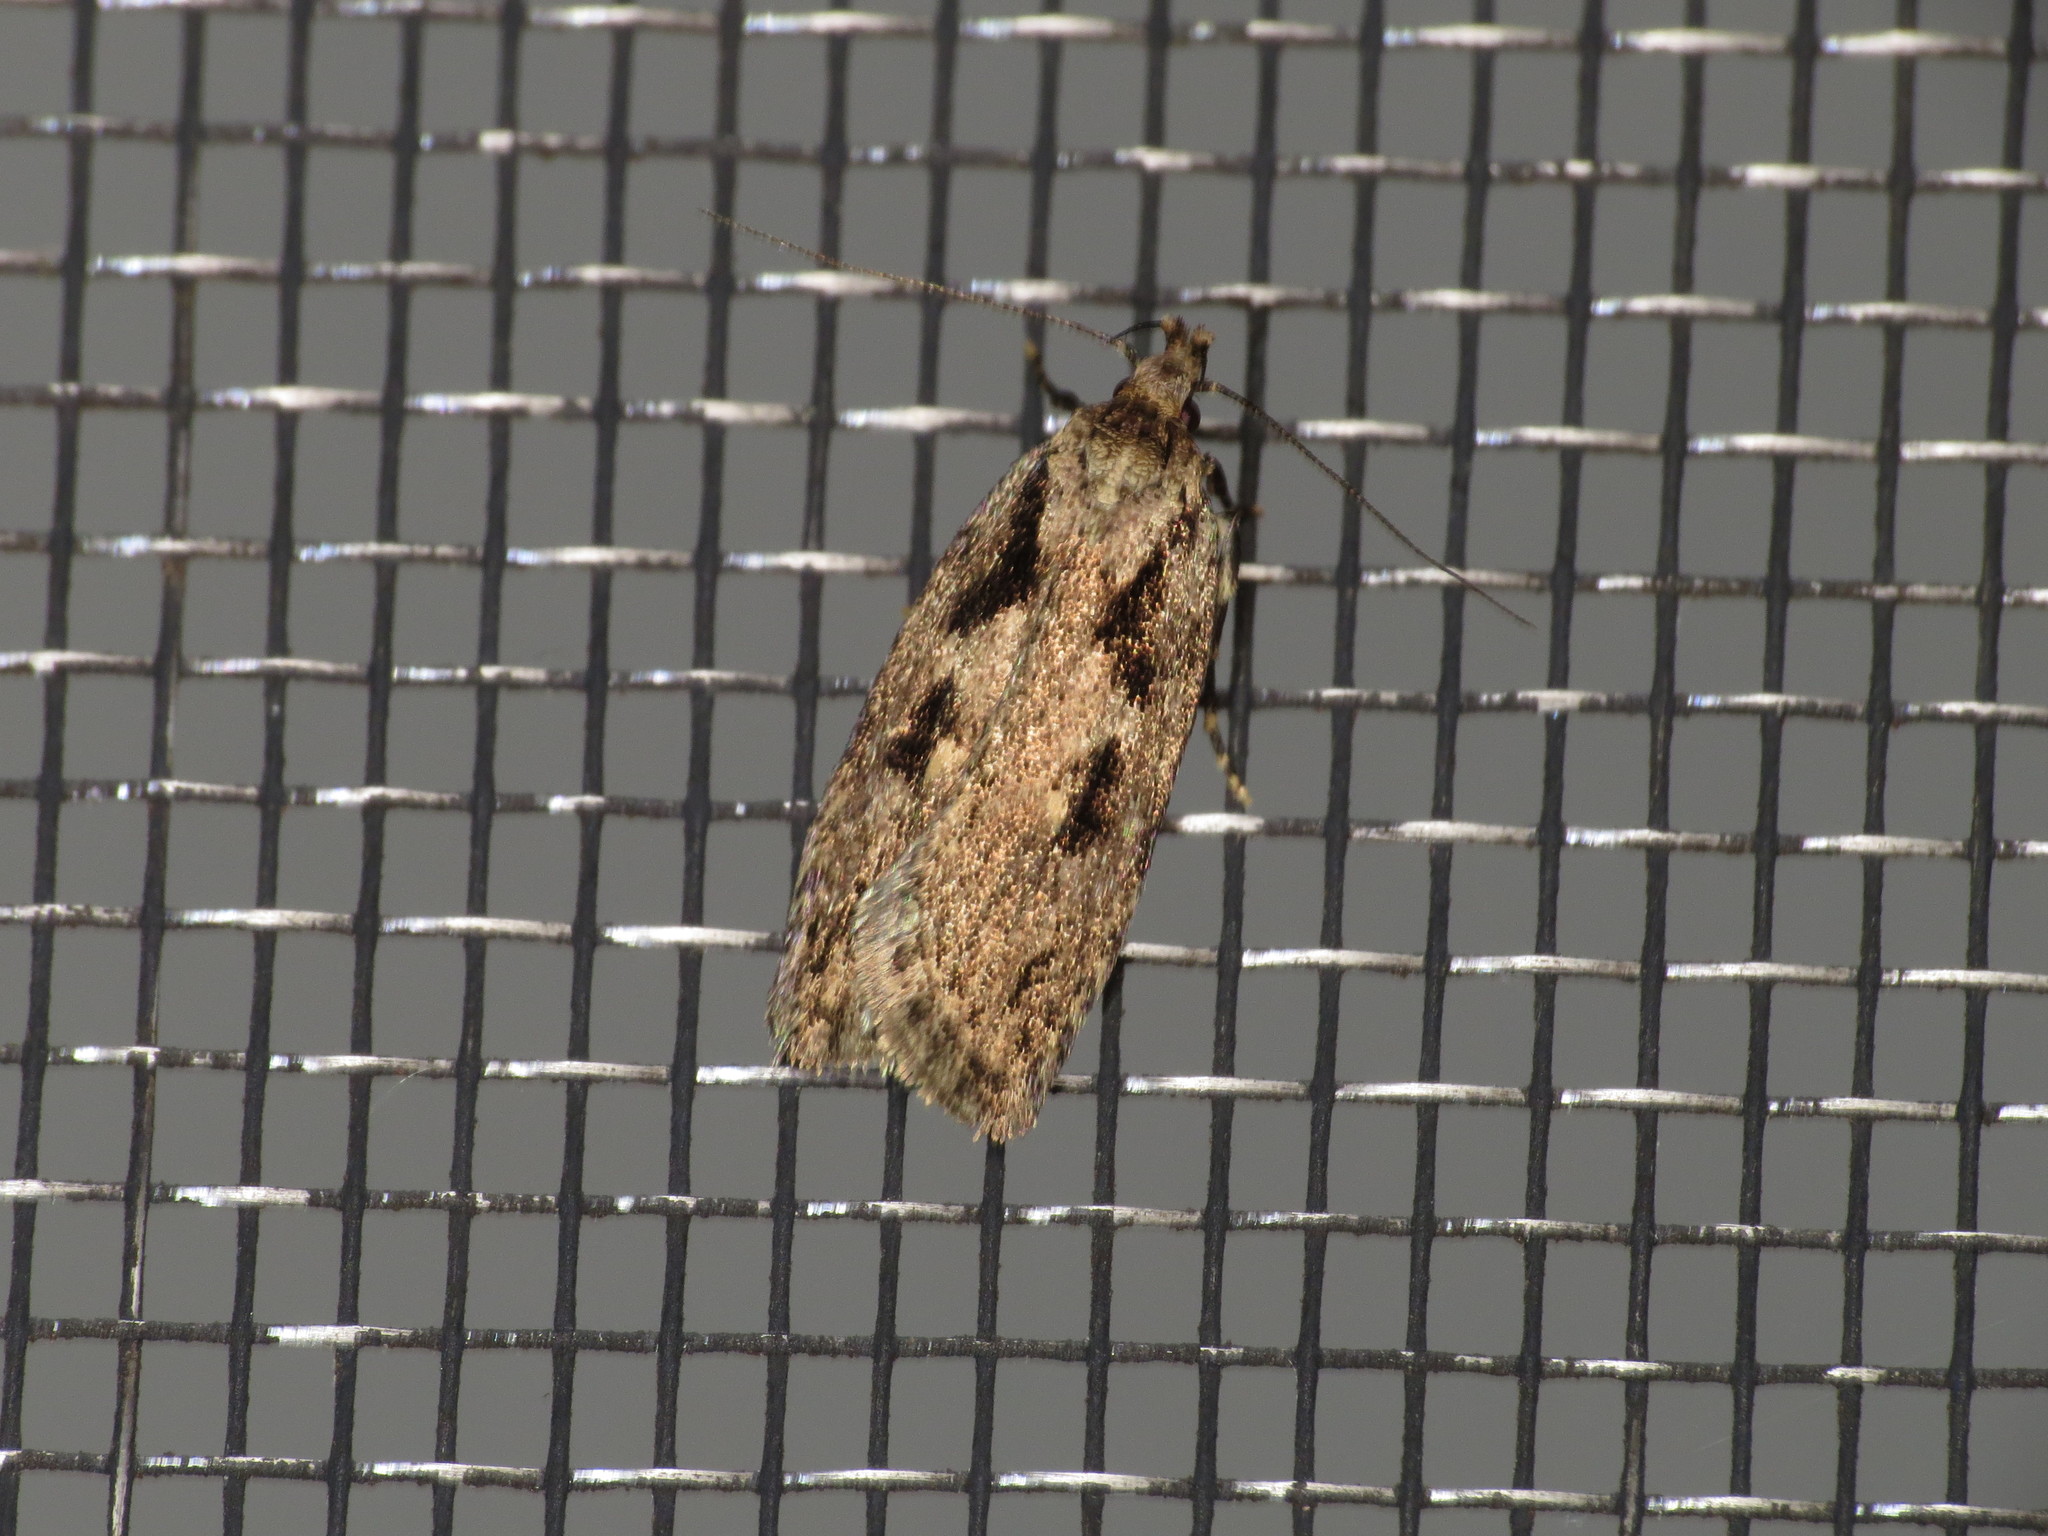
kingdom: Animalia
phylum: Arthropoda
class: Insecta
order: Lepidoptera
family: Oecophoridae
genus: Barea
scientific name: Barea bathrochorda
